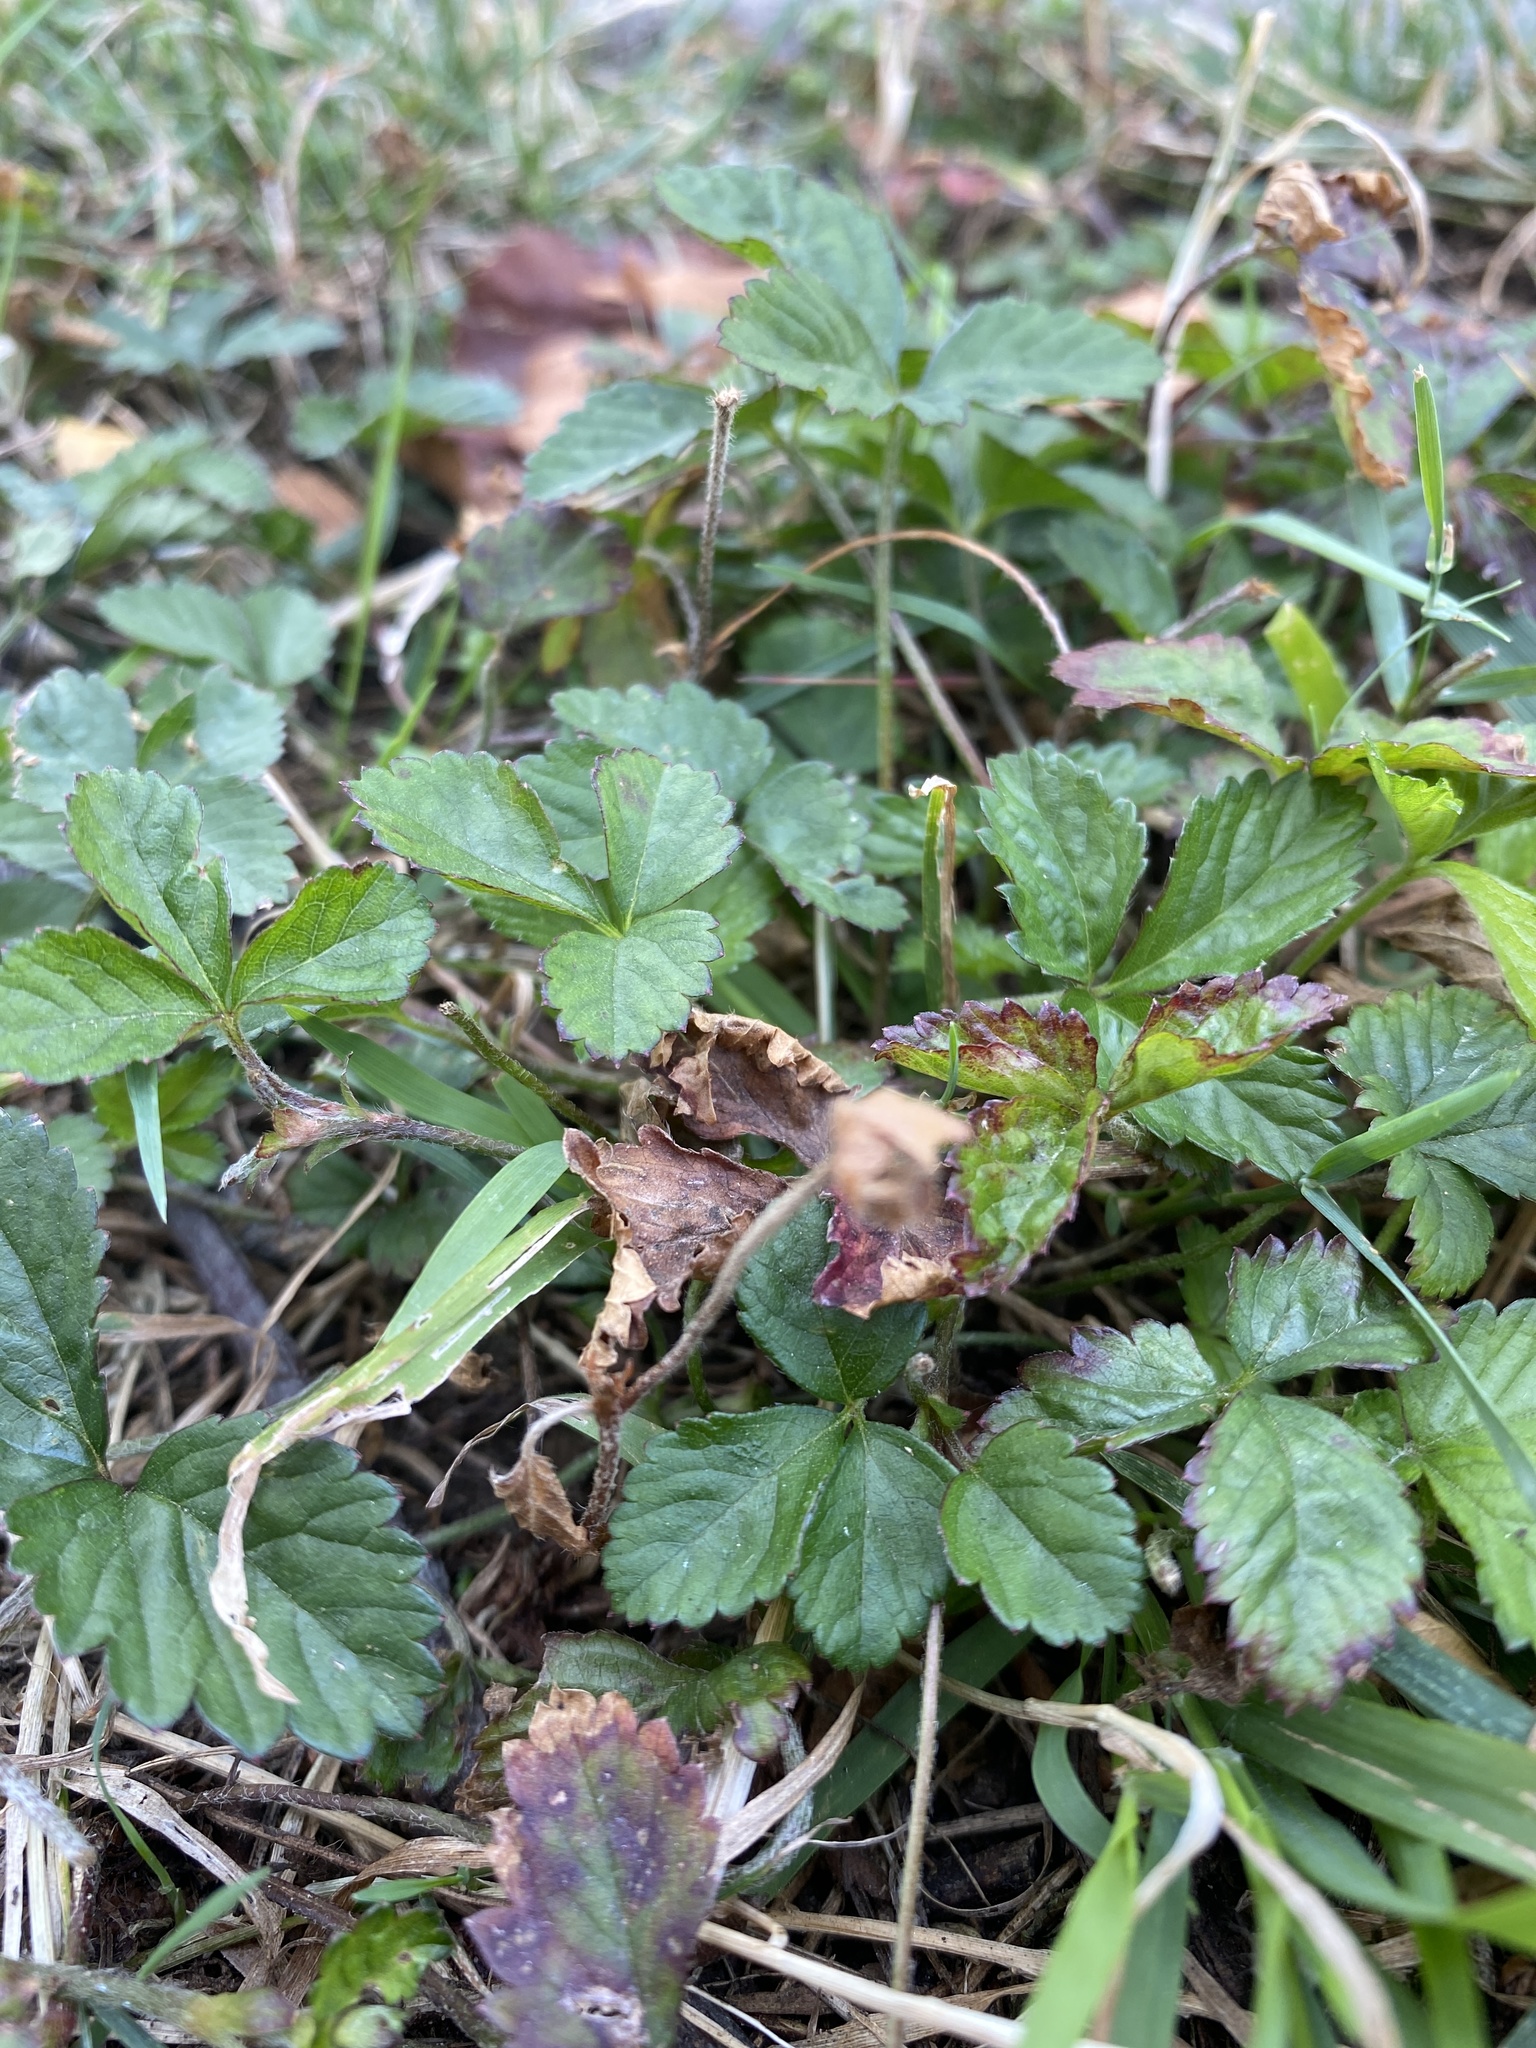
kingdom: Plantae
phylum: Tracheophyta
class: Magnoliopsida
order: Rosales
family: Rosaceae
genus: Potentilla
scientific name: Potentilla indica
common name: Yellow-flowered strawberry
